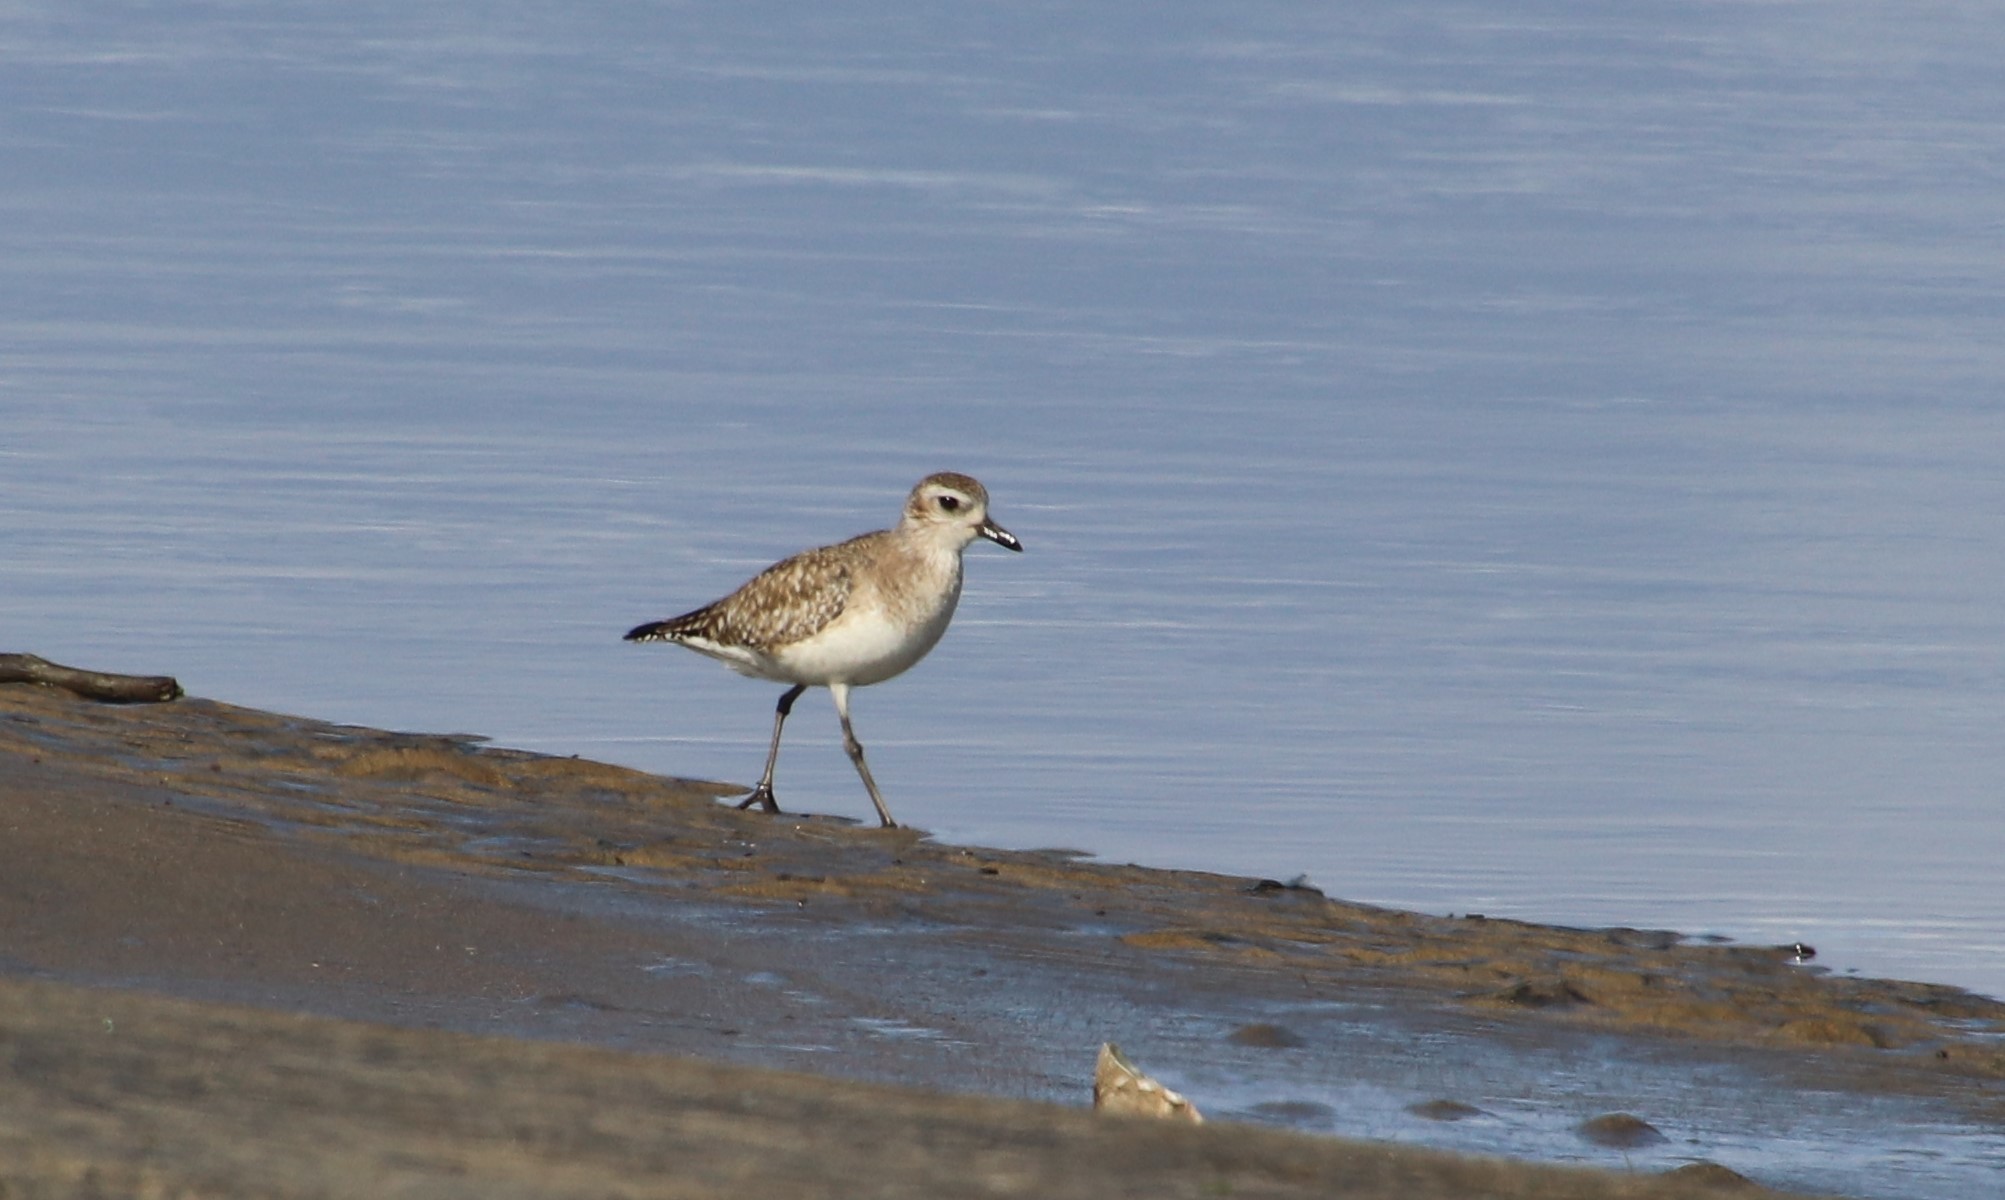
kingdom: Animalia
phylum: Chordata
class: Aves
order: Charadriiformes
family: Charadriidae
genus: Pluvialis
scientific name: Pluvialis squatarola
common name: Grey plover
